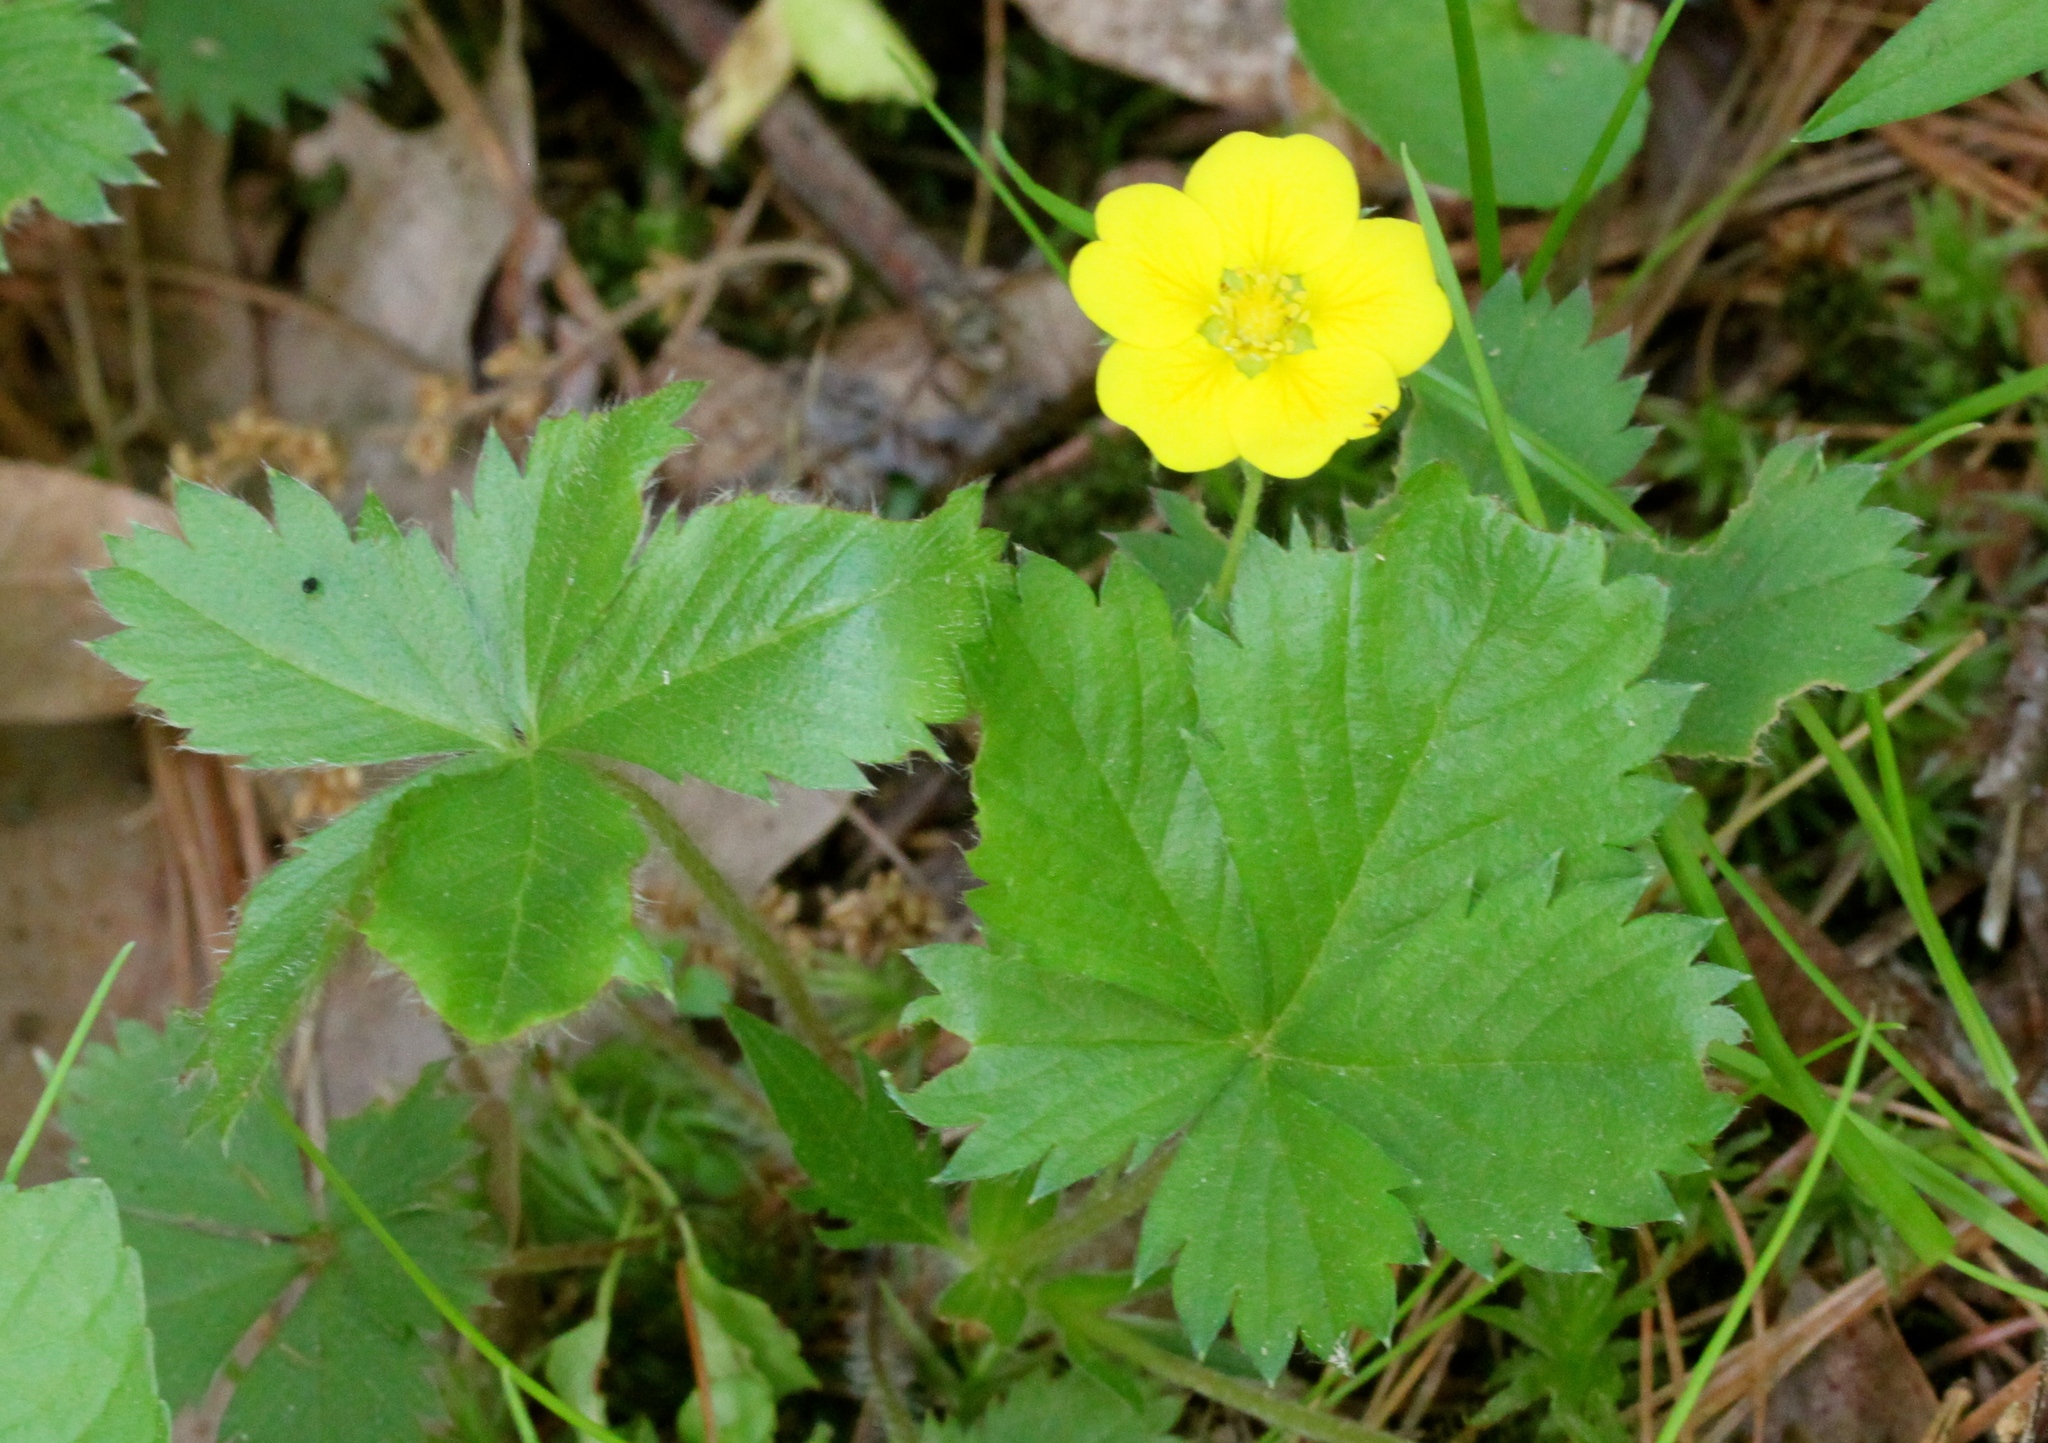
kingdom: Plantae
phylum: Tracheophyta
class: Magnoliopsida
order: Rosales
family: Rosaceae
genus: Potentilla
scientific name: Potentilla simplex
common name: Old field cinquefoil
